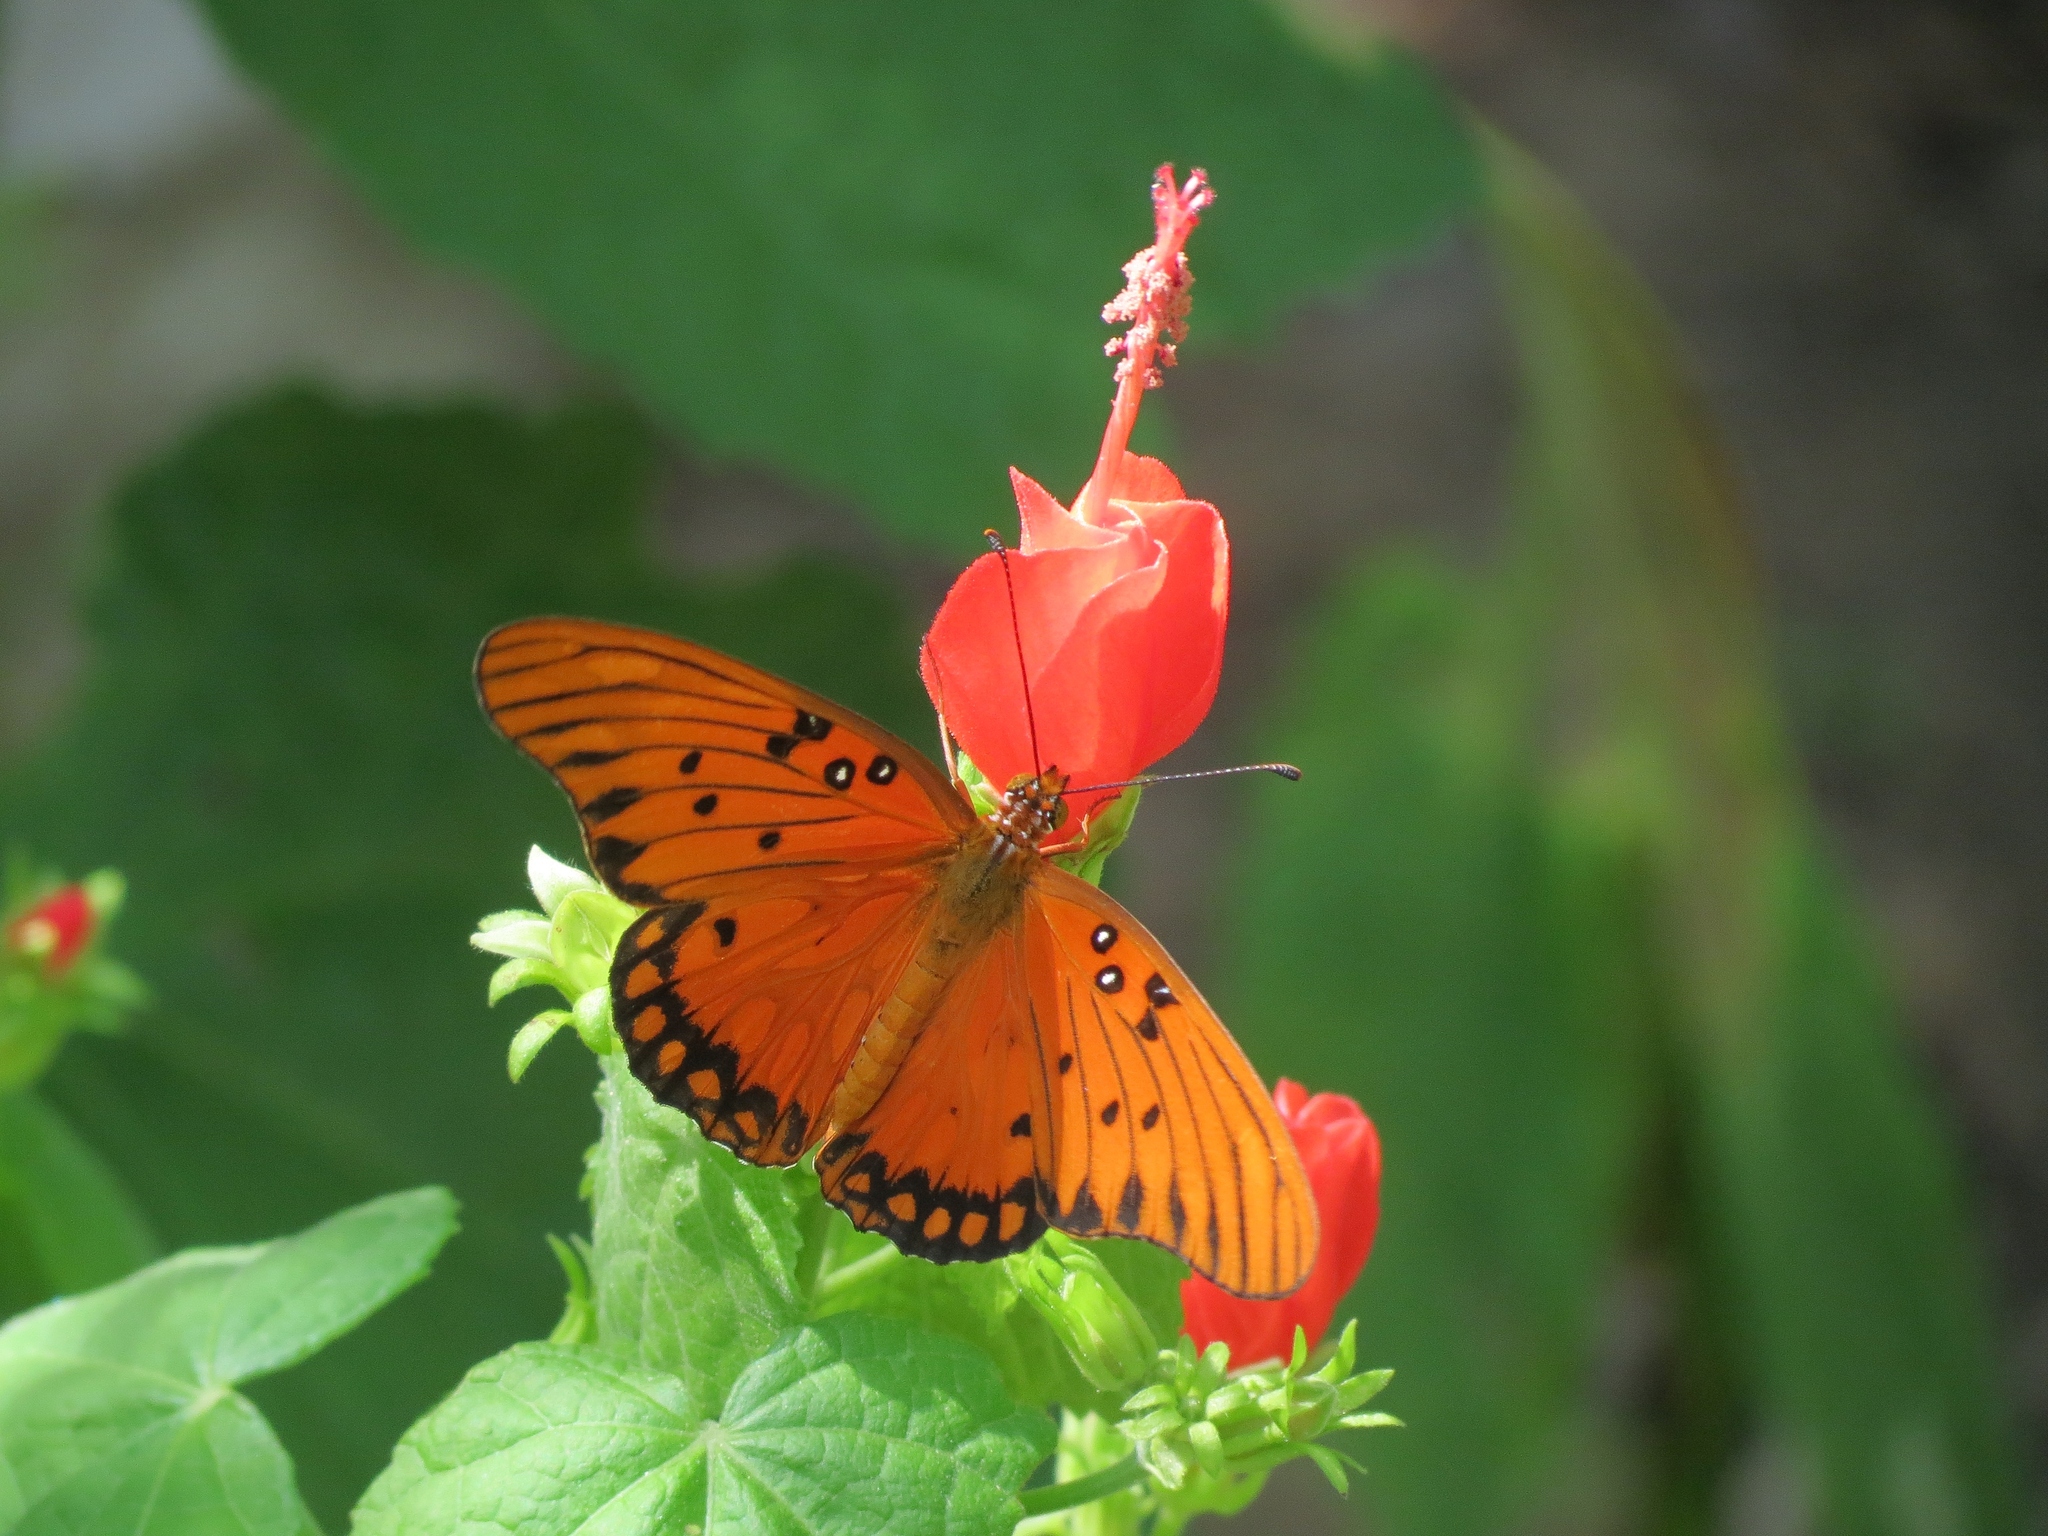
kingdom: Animalia
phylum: Arthropoda
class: Insecta
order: Lepidoptera
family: Nymphalidae
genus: Dione
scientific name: Dione vanillae
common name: Gulf fritillary
